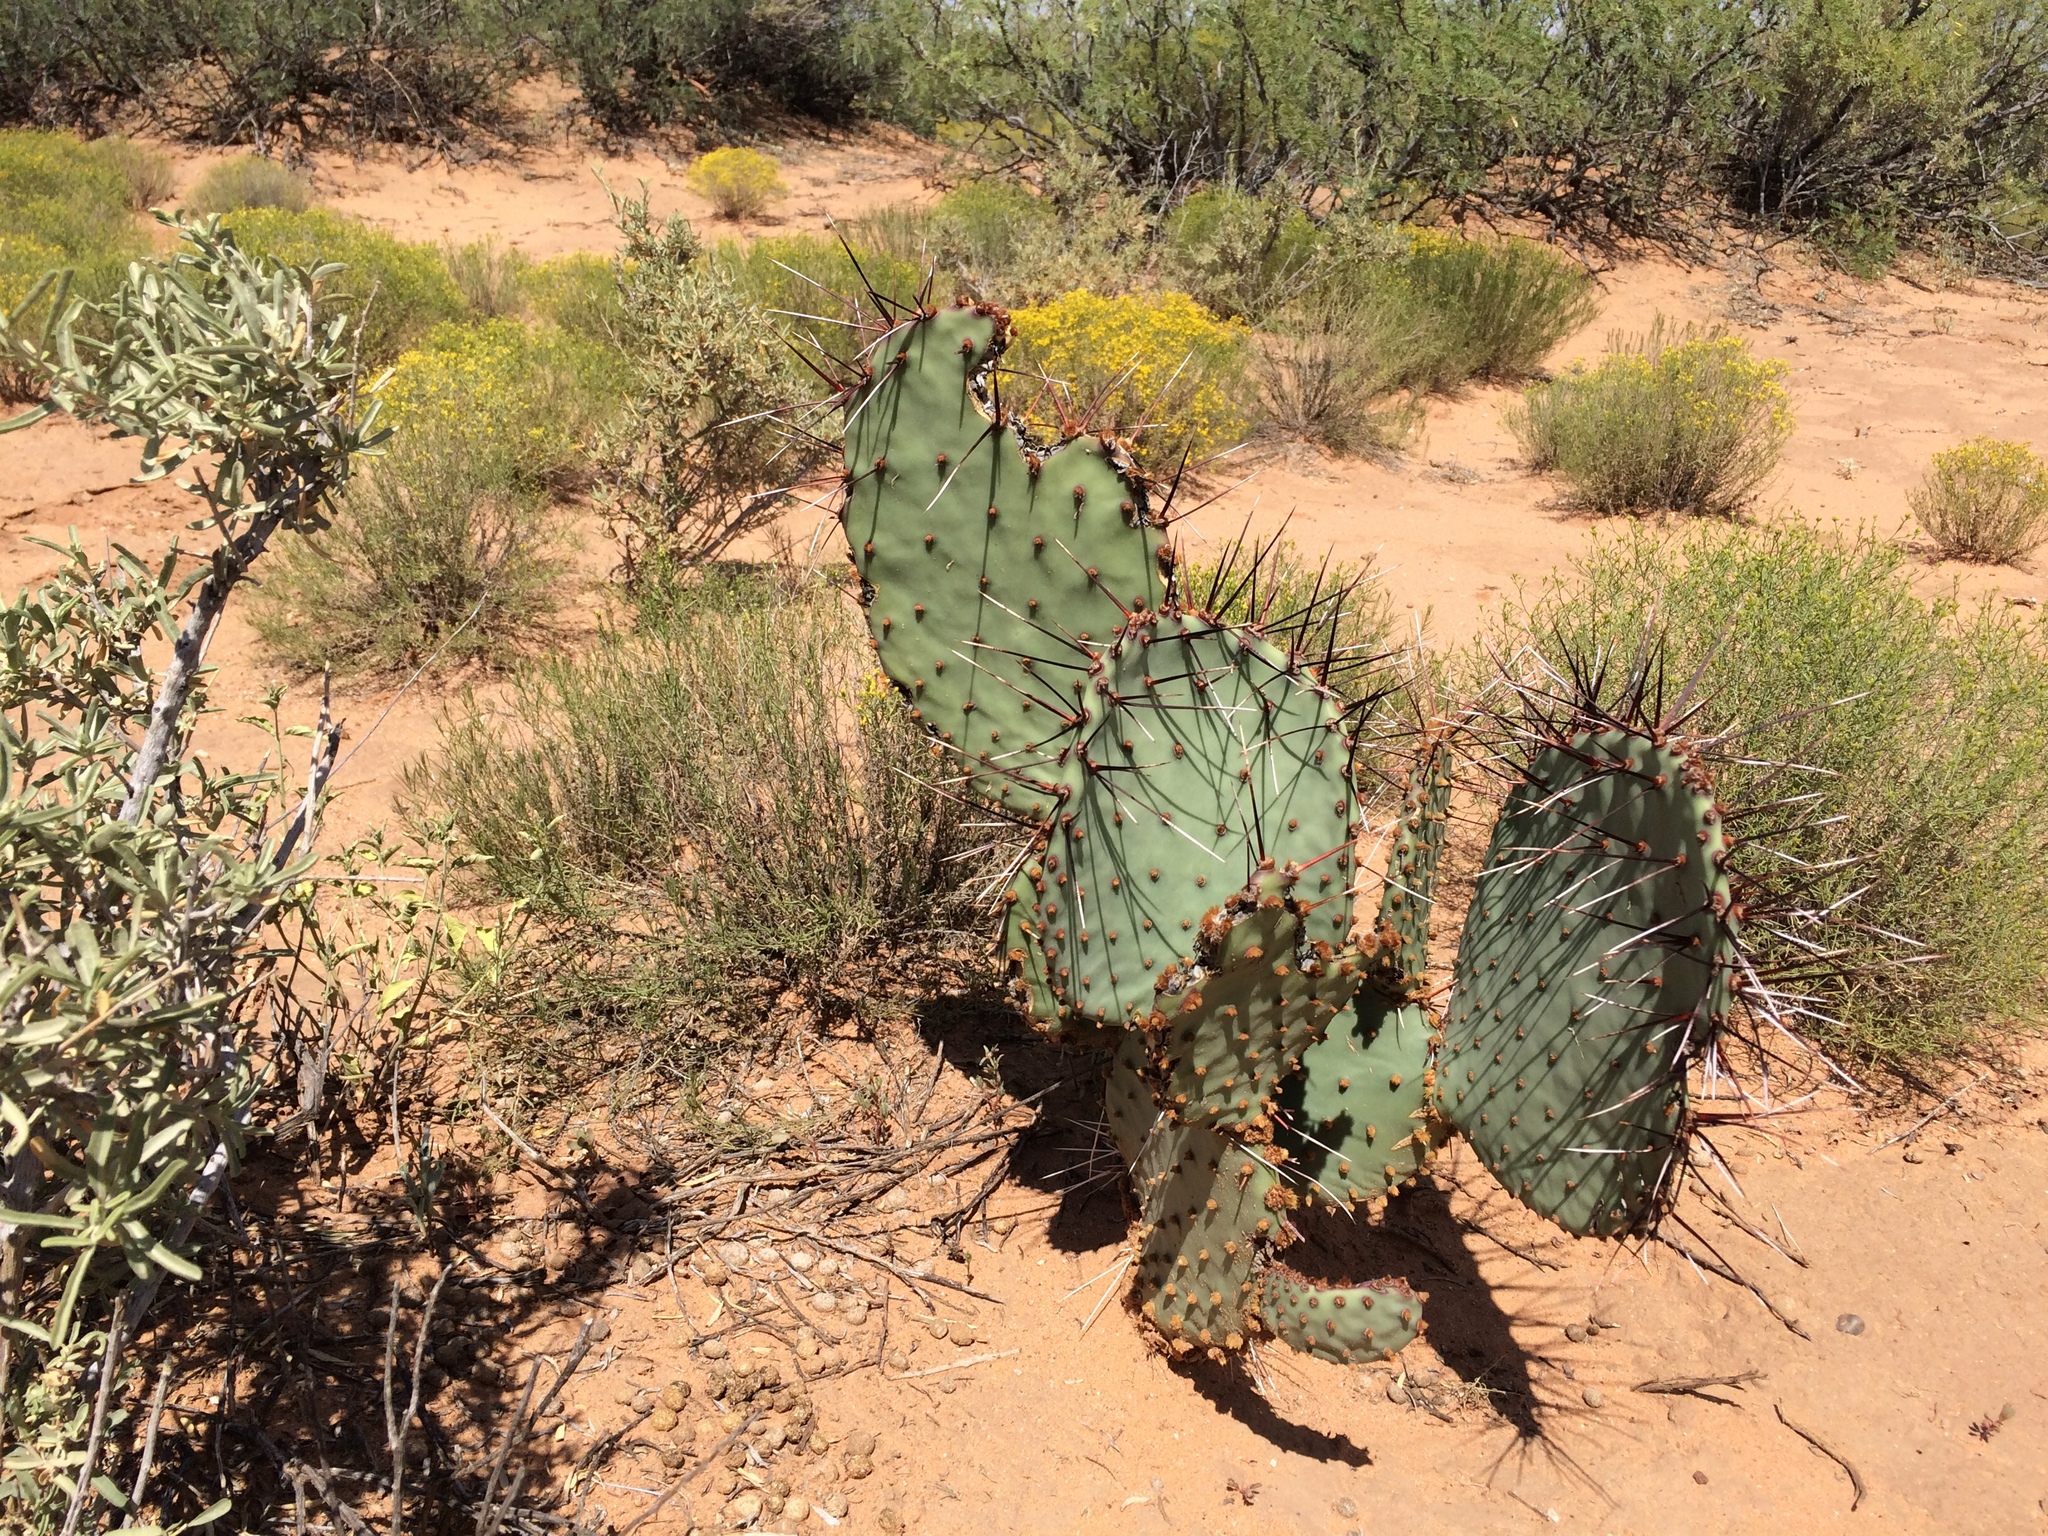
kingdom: Plantae
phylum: Tracheophyta
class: Magnoliopsida
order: Caryophyllales
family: Cactaceae
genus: Opuntia
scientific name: Opuntia macrocentra
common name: Purple prickly-pear
